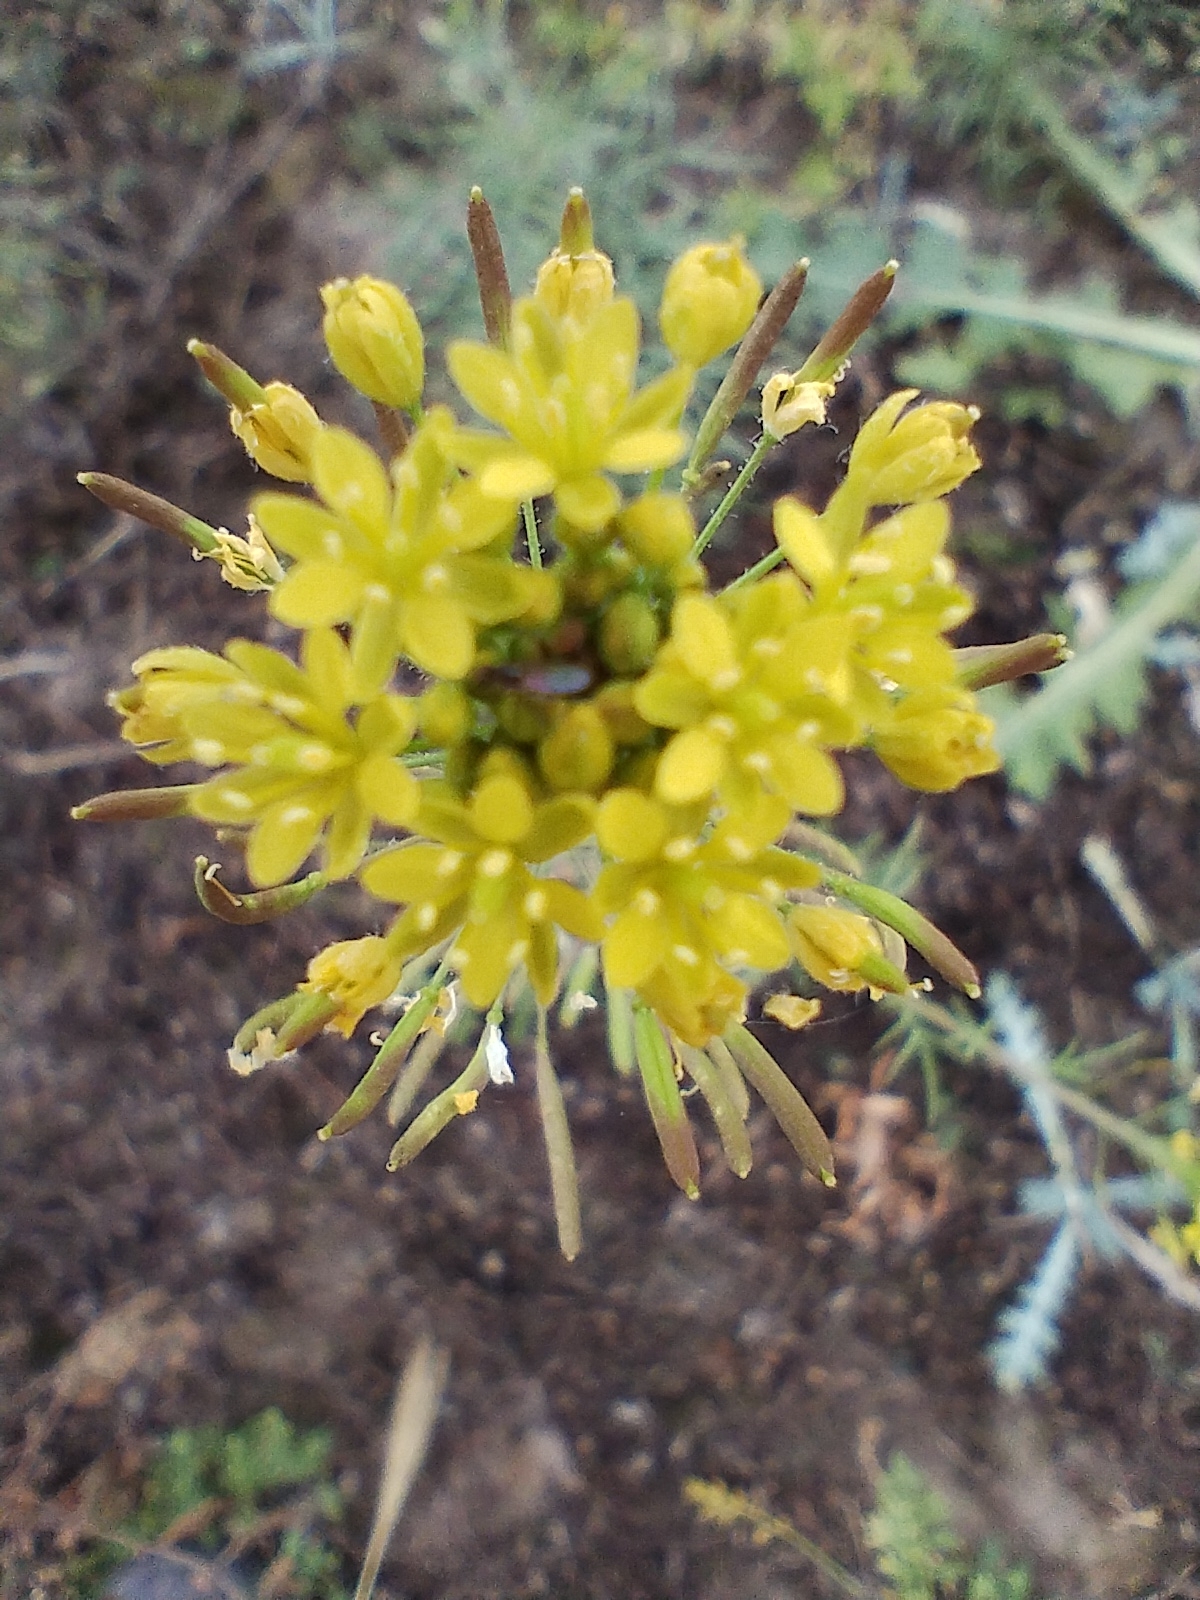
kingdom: Plantae
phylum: Tracheophyta
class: Magnoliopsida
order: Brassicales
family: Brassicaceae
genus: Descurainia
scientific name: Descurainia erodiifolia
